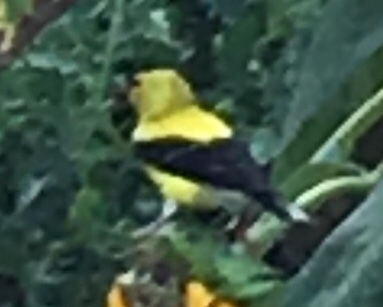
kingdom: Animalia
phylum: Chordata
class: Aves
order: Passeriformes
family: Fringillidae
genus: Spinus
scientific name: Spinus tristis
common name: American goldfinch
